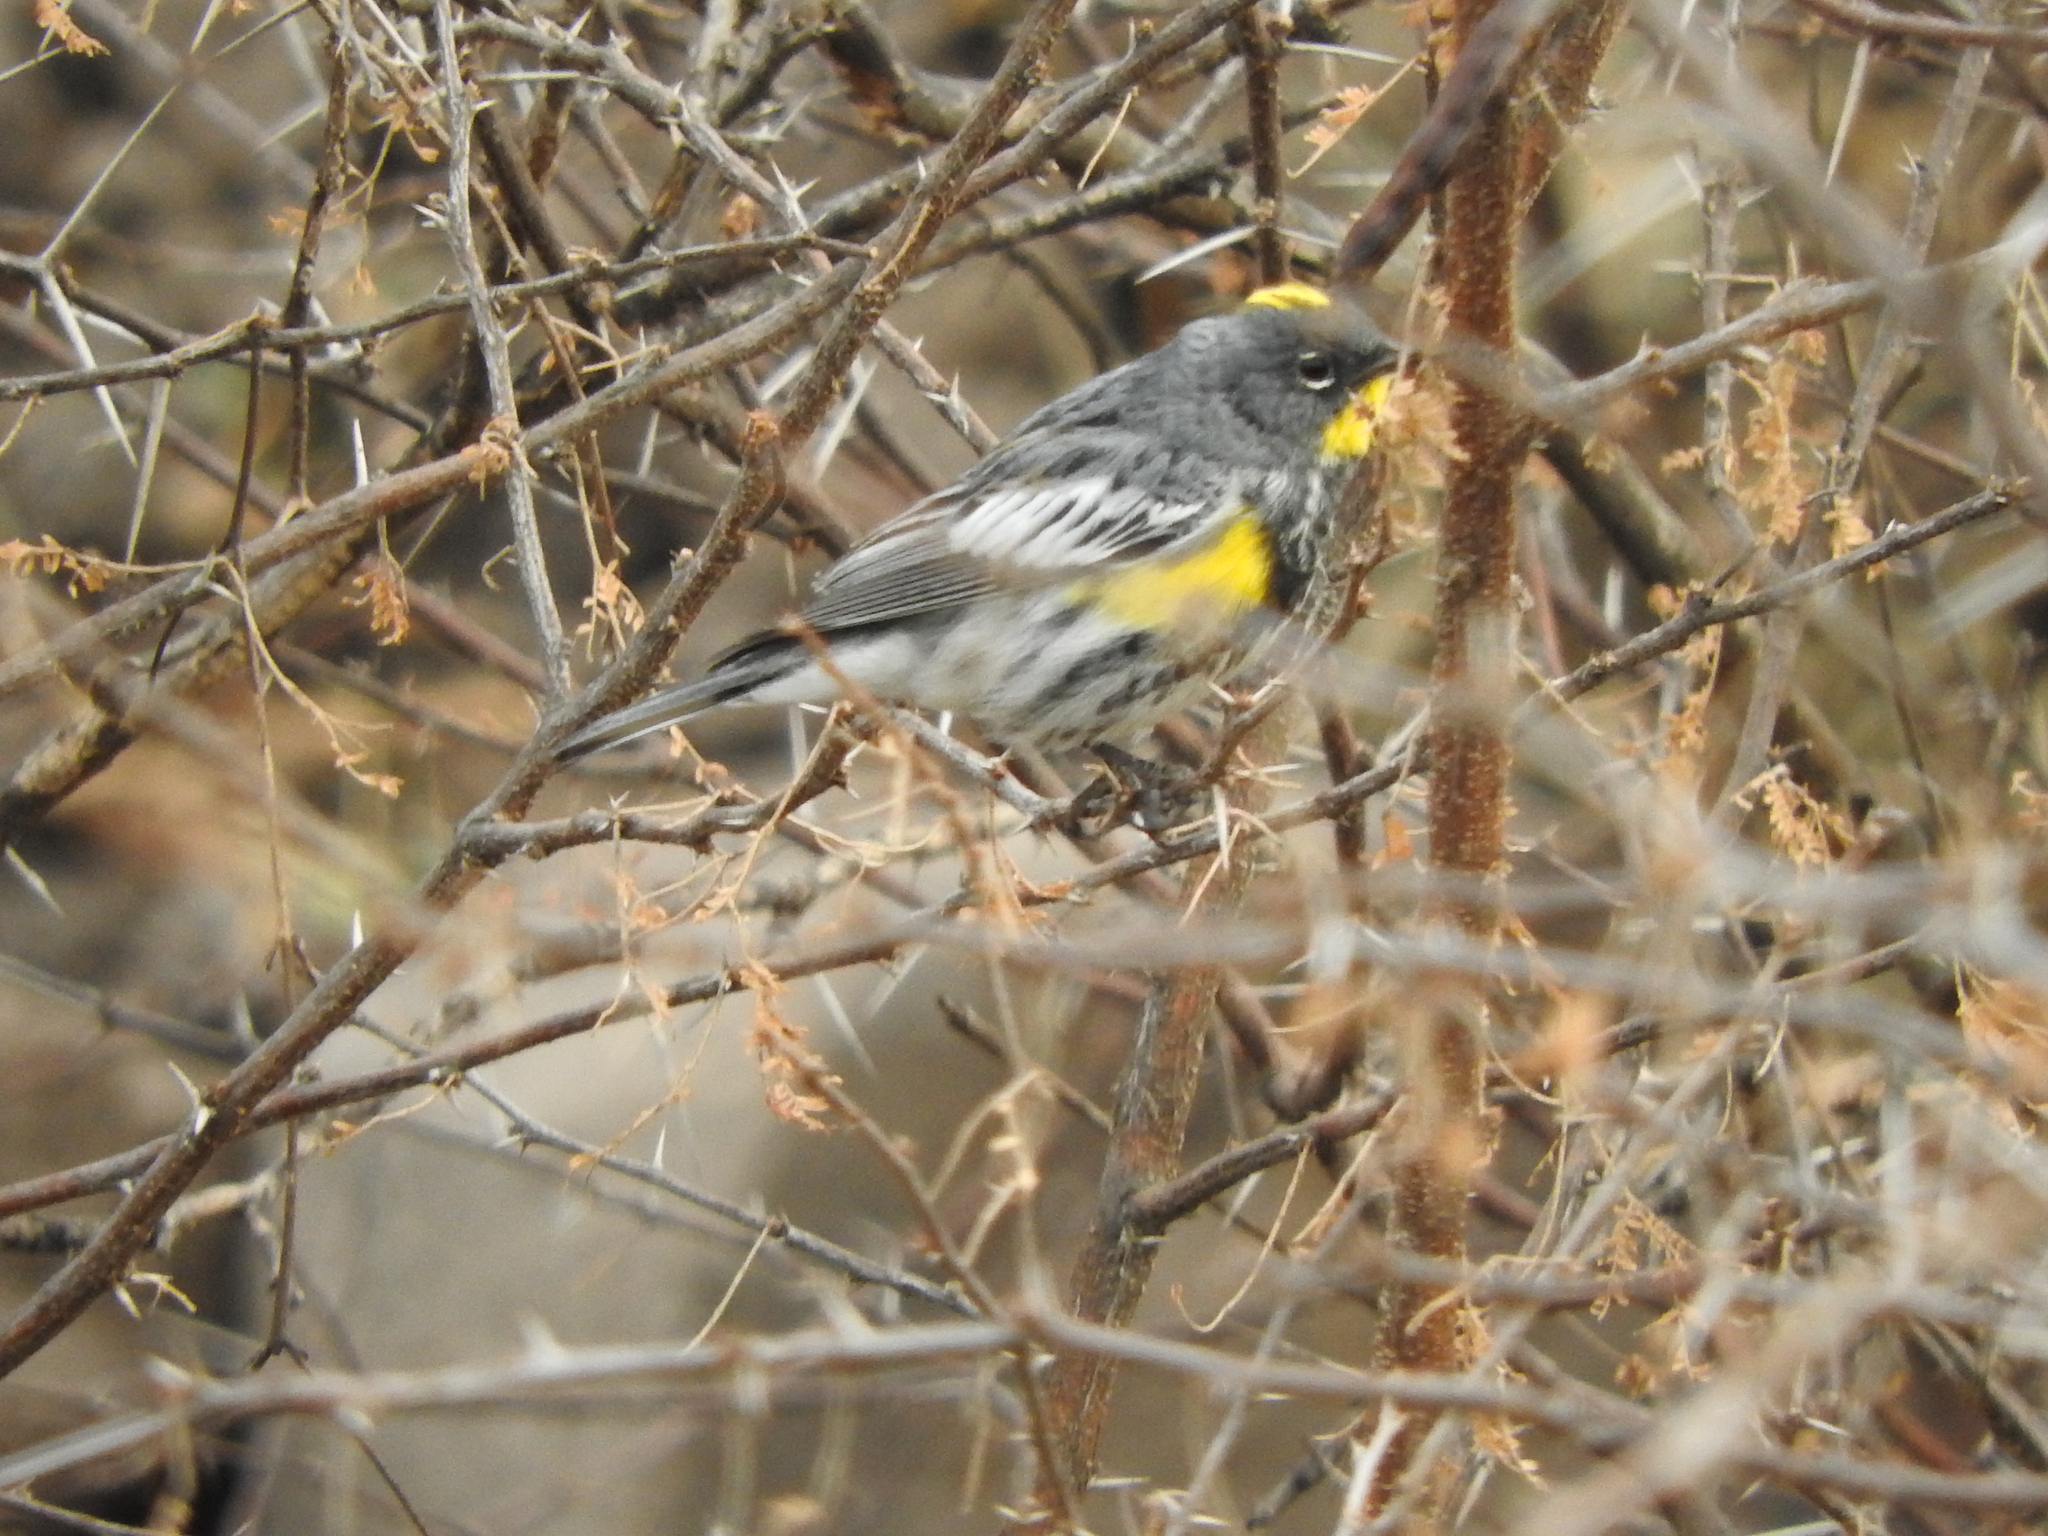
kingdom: Animalia
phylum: Chordata
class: Aves
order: Passeriformes
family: Parulidae
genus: Setophaga
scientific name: Setophaga coronata
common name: Myrtle warbler
